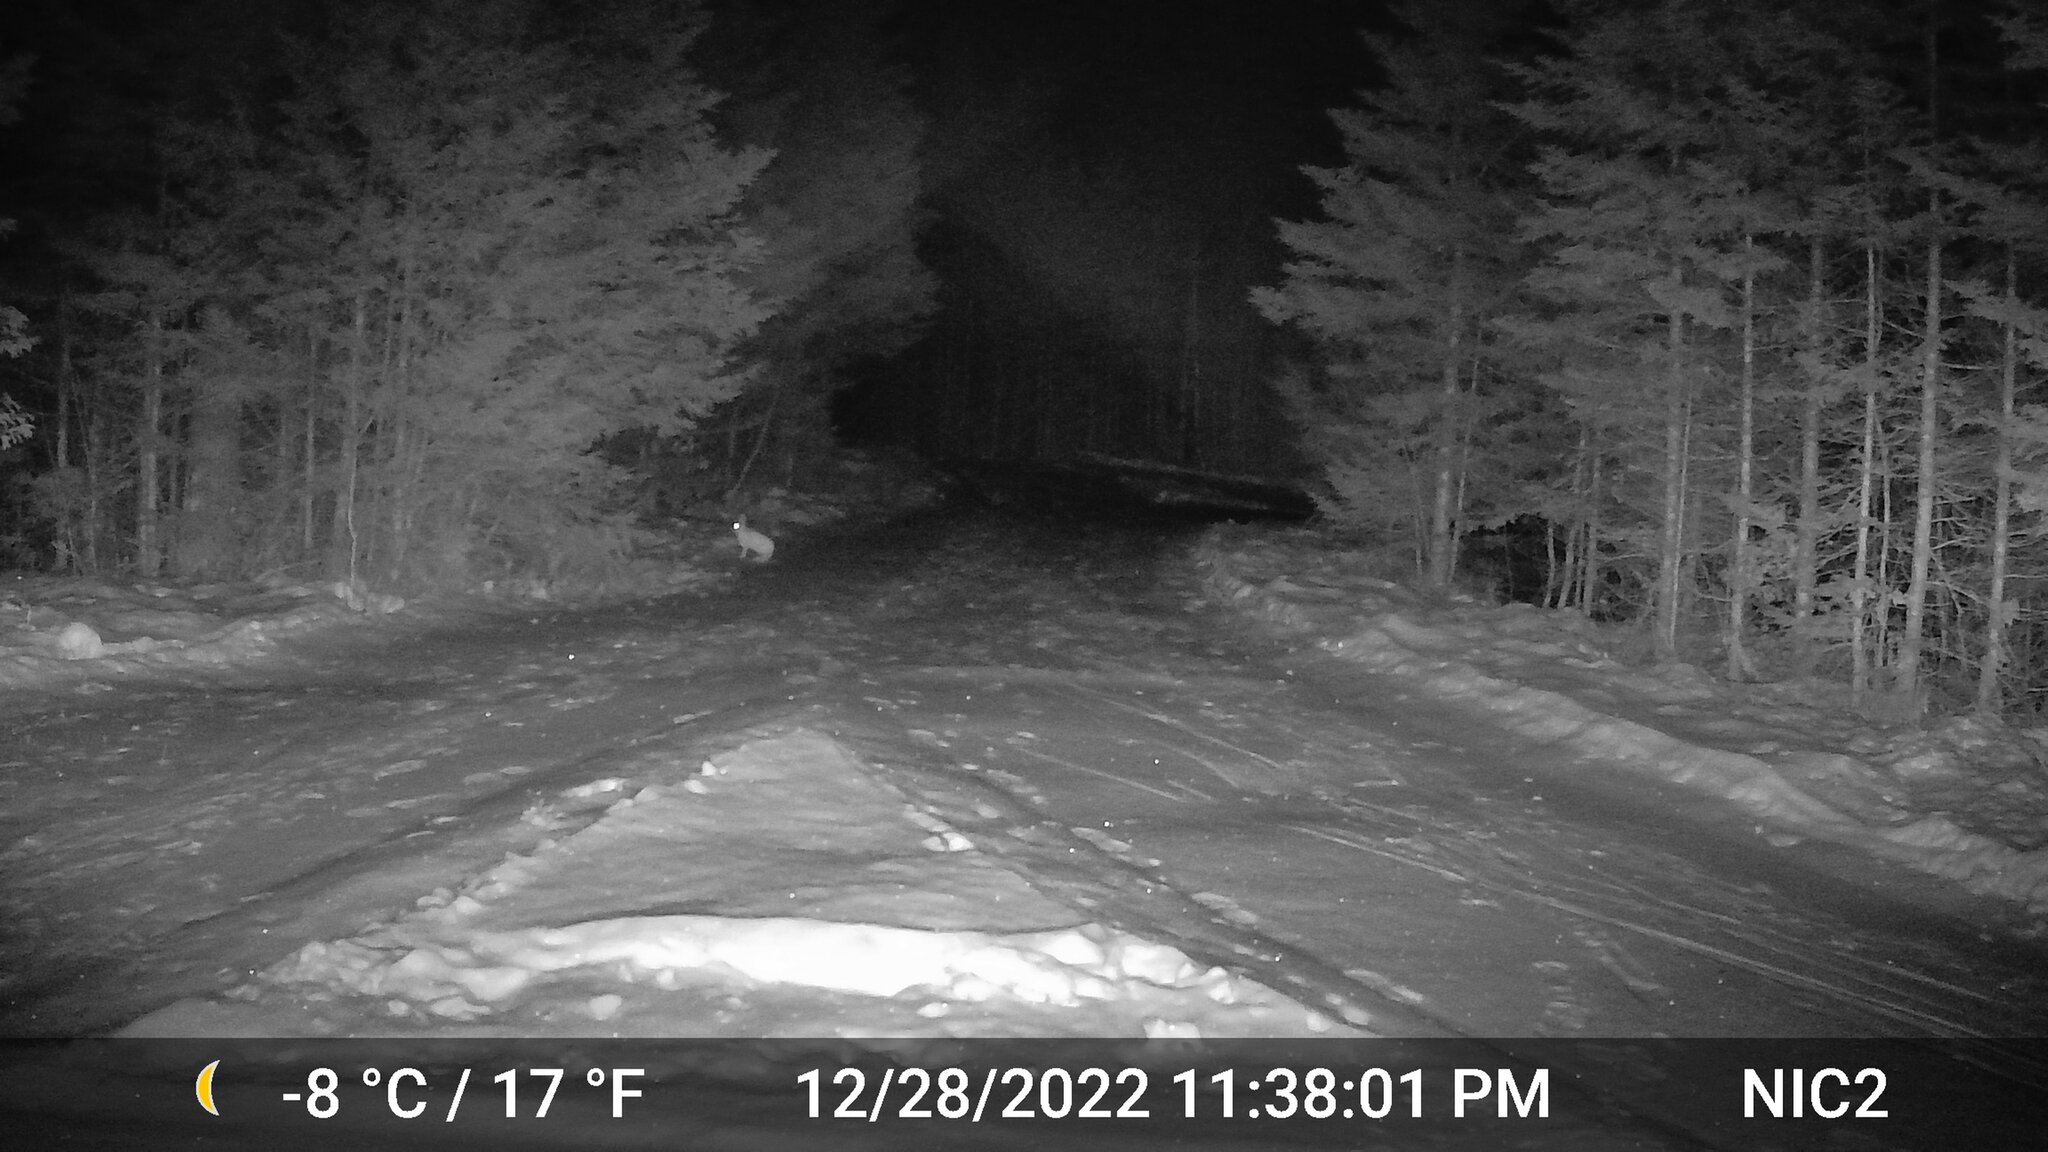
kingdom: Animalia
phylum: Chordata
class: Mammalia
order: Lagomorpha
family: Leporidae
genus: Lepus
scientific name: Lepus americanus
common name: Snowshoe hare
